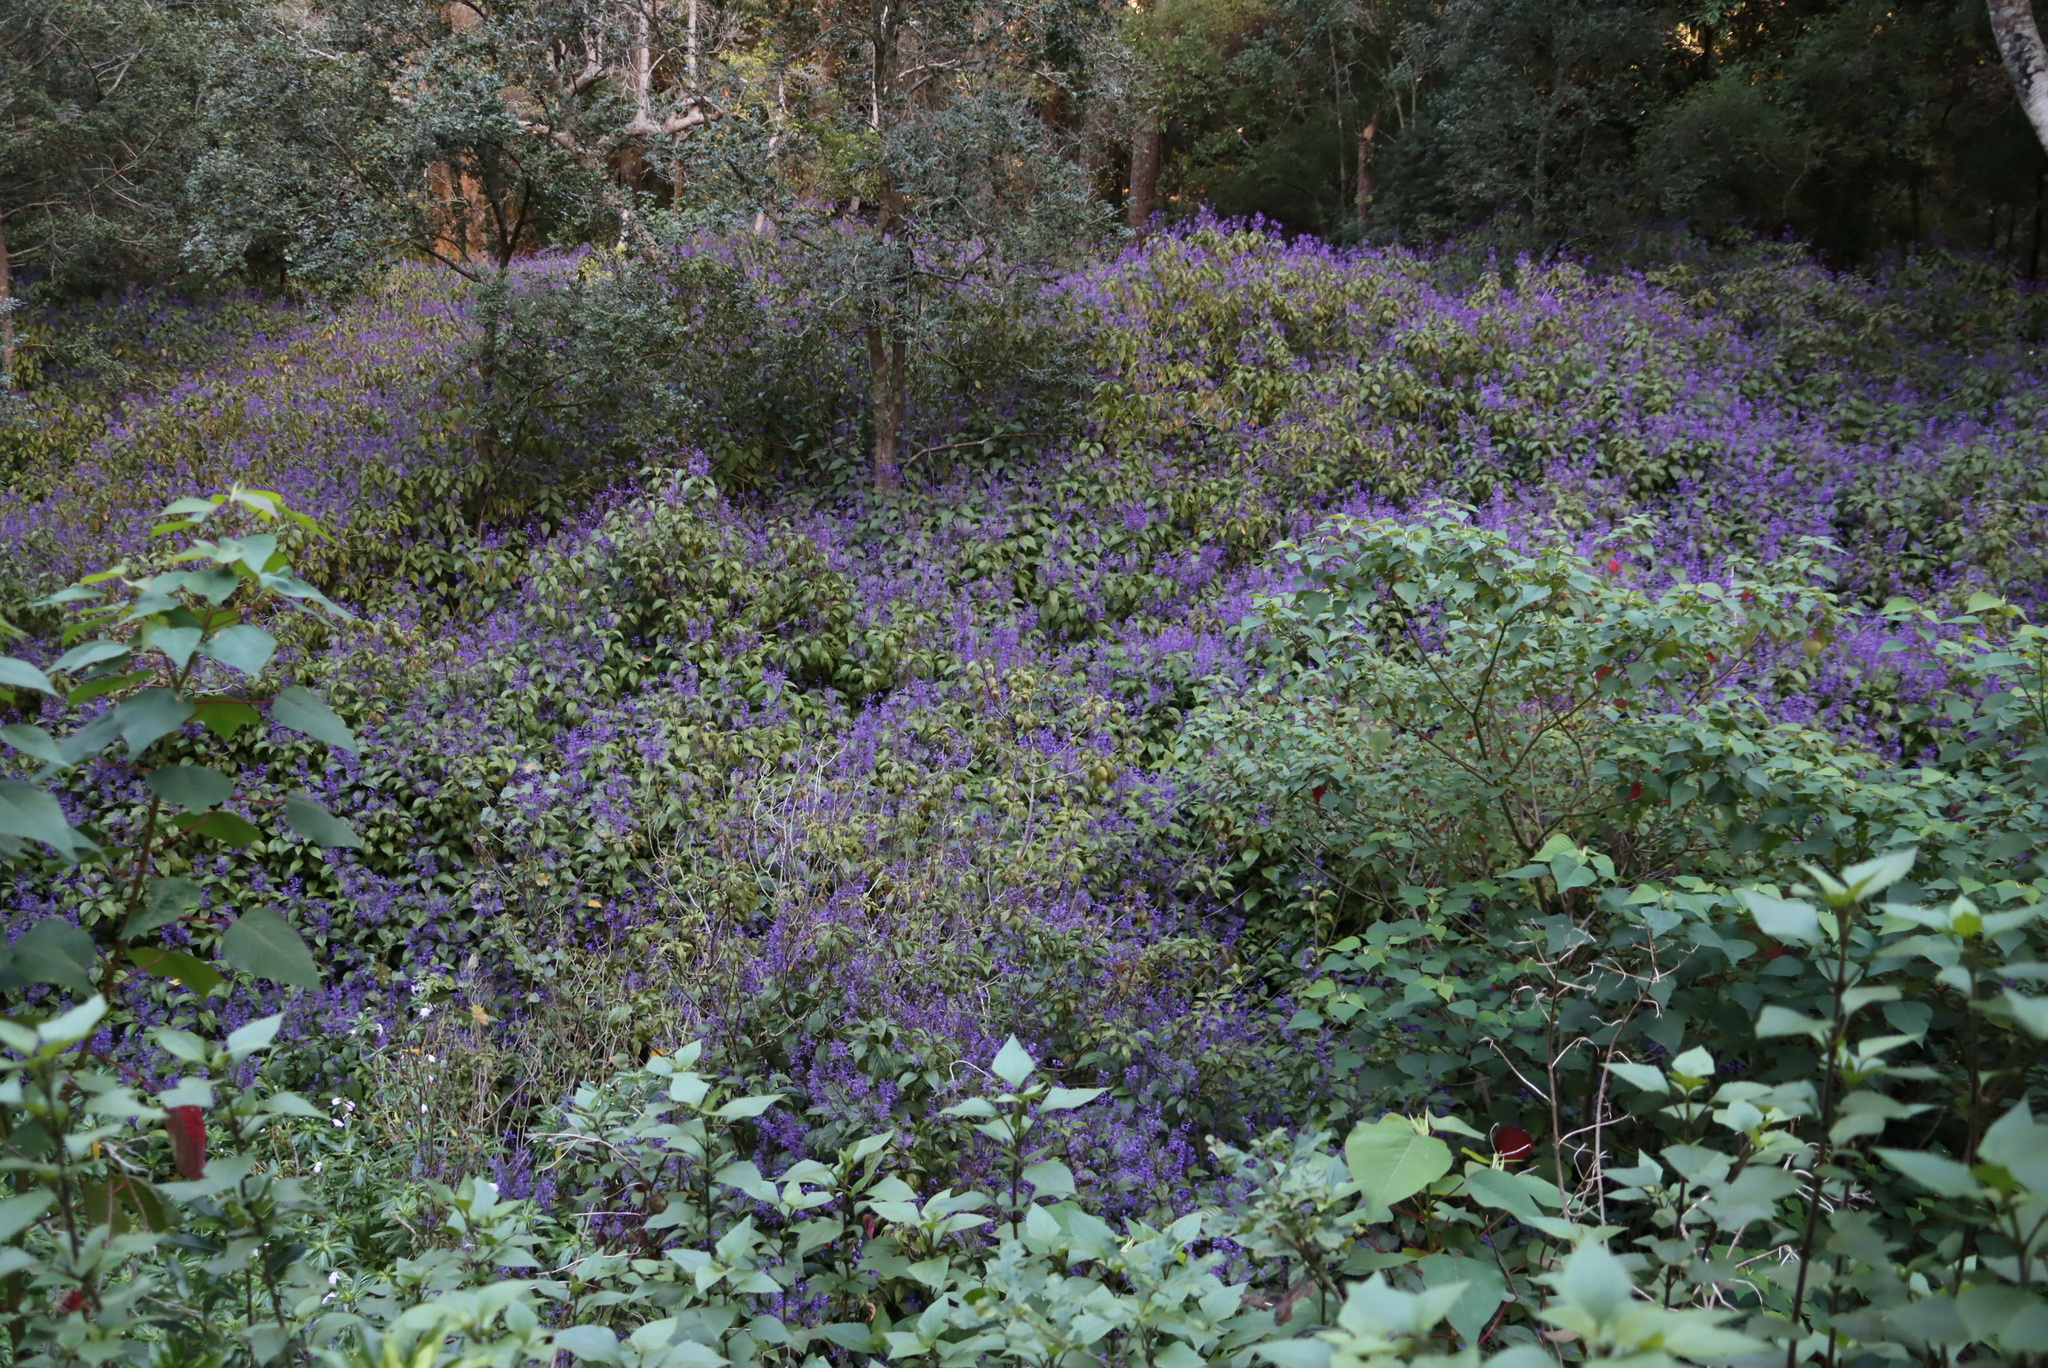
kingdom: Plantae
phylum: Tracheophyta
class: Magnoliopsida
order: Lamiales
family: Lamiaceae
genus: Plectranthus
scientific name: Plectranthus ecklonii
